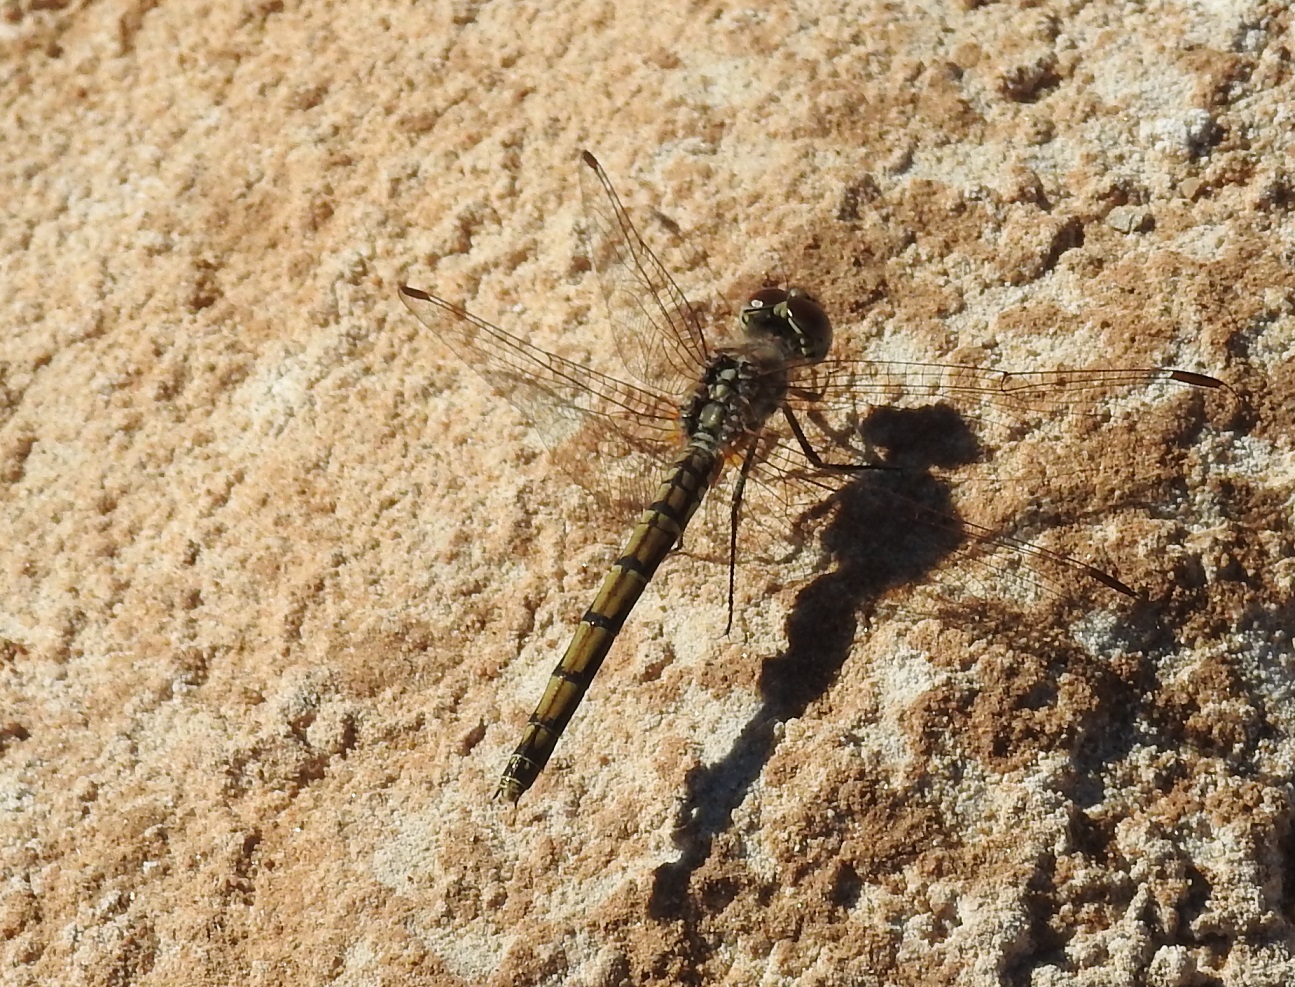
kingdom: Animalia
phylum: Arthropoda
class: Insecta
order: Odonata
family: Libellulidae
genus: Trithemis
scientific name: Trithemis arteriosa
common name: Red-veined dropwing
